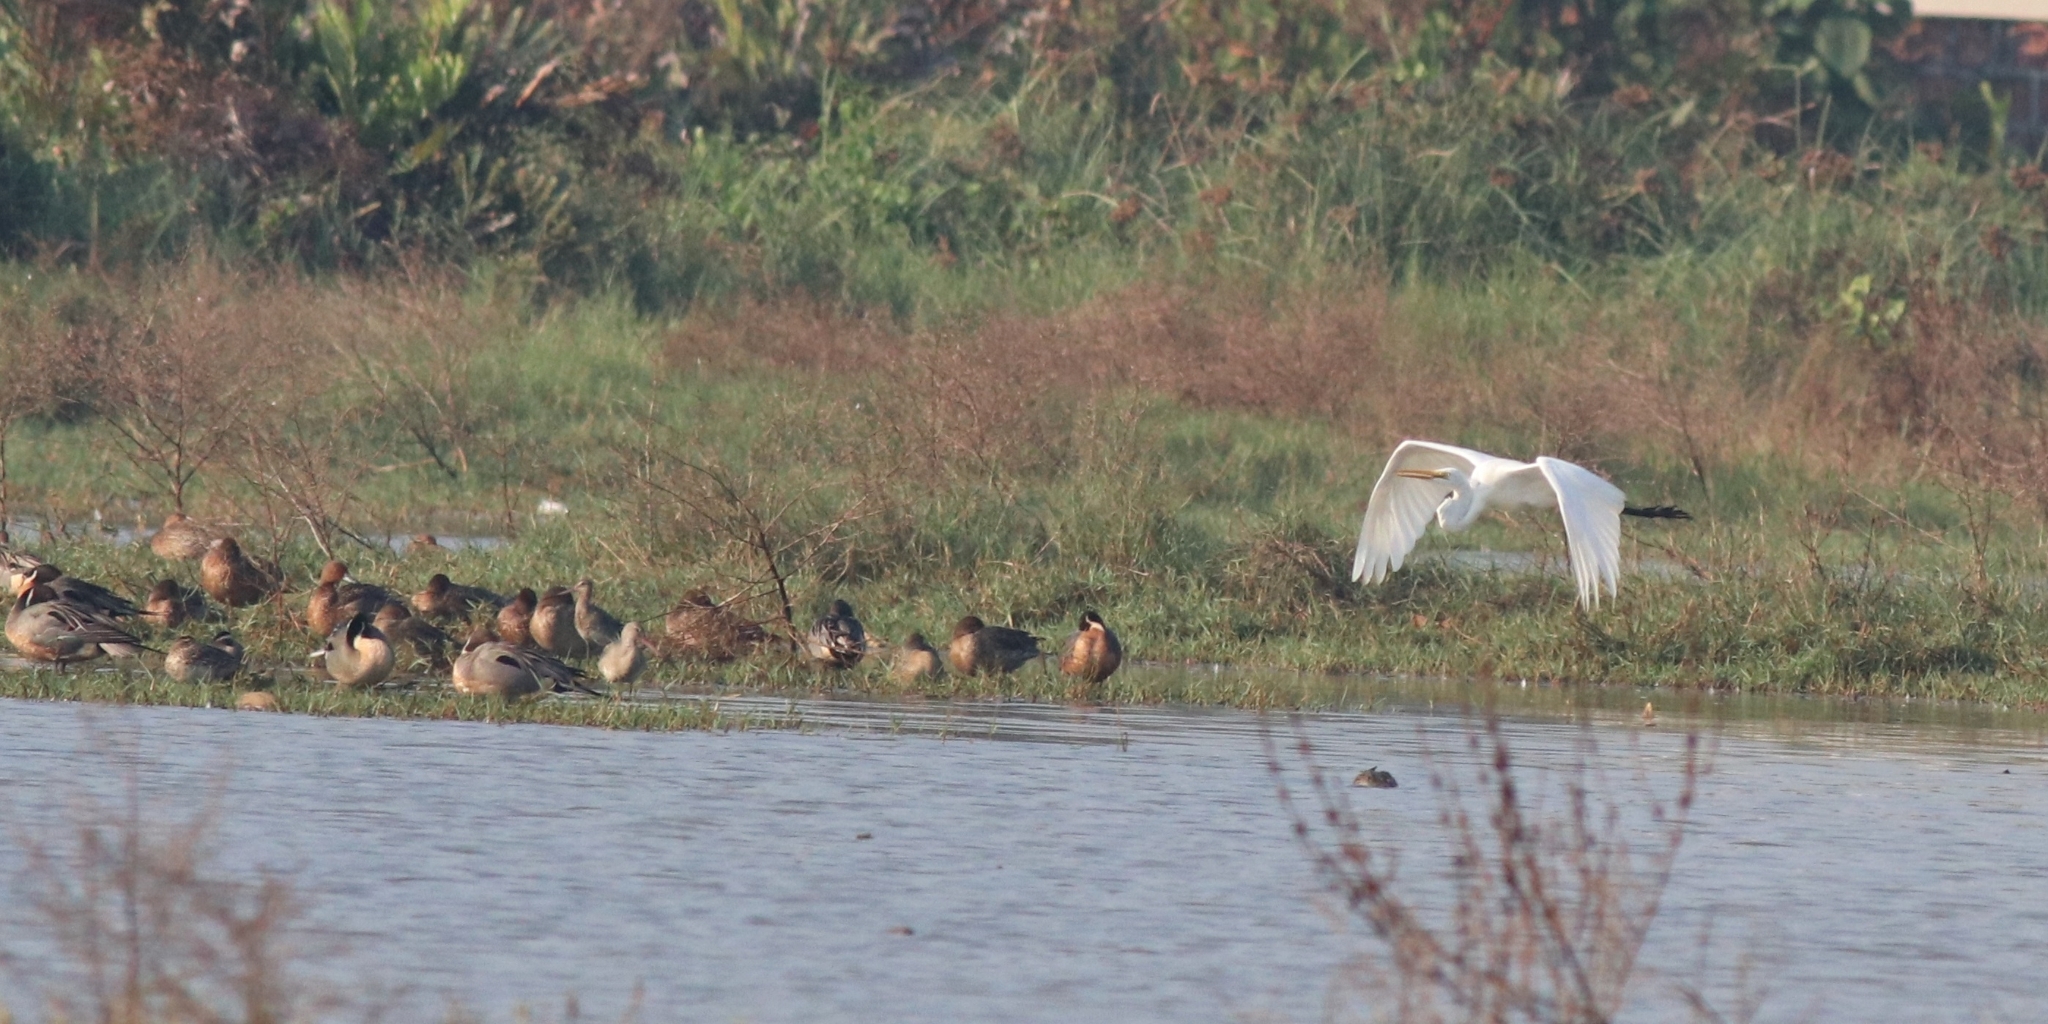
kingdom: Animalia
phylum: Chordata
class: Aves
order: Pelecaniformes
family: Ardeidae
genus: Ardea
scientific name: Ardea alba
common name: Great egret
